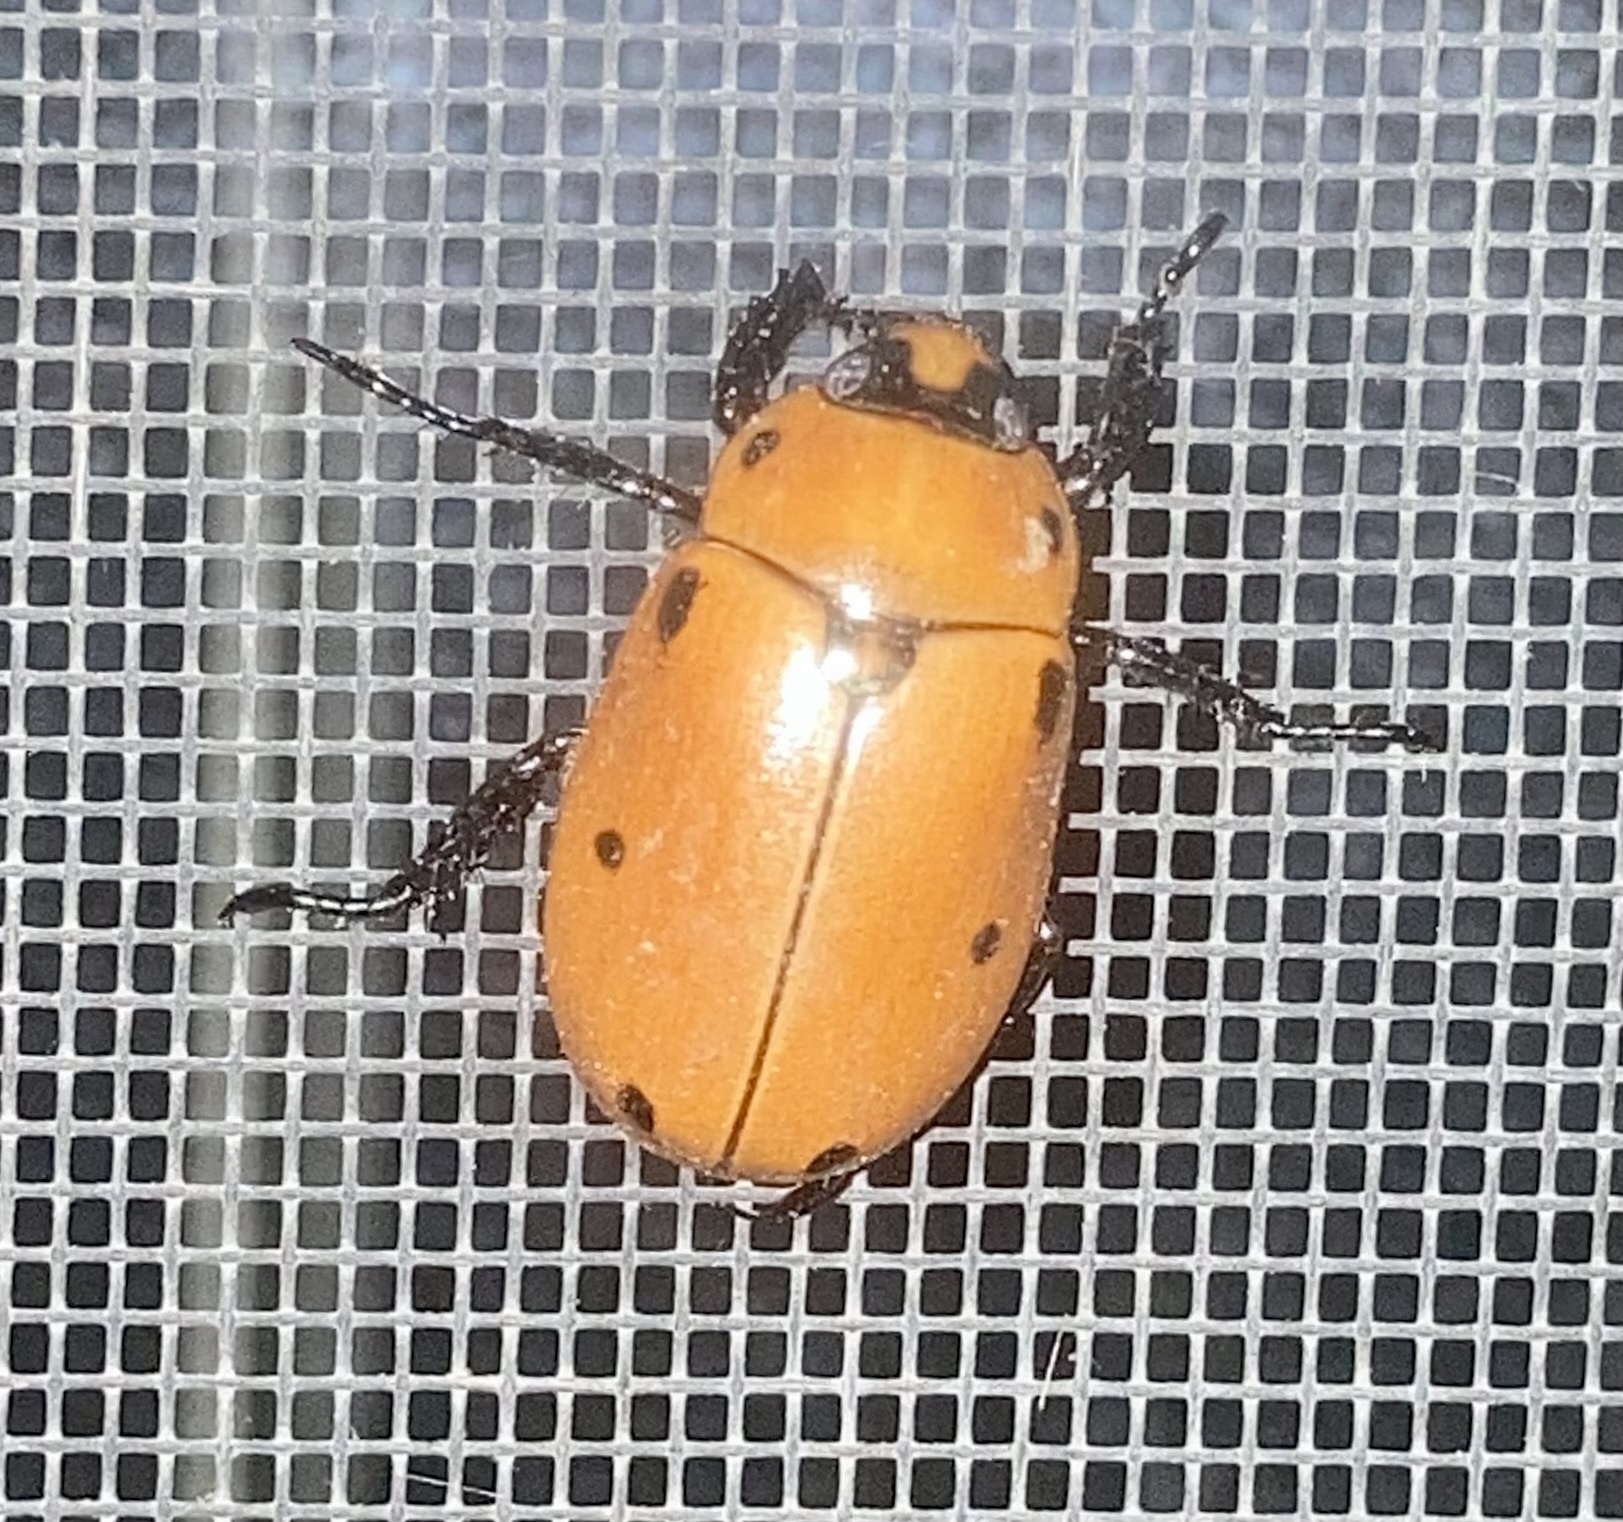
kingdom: Animalia
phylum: Arthropoda
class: Insecta
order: Coleoptera
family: Scarabaeidae
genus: Pelidnota
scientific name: Pelidnota punctata
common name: Grapevine beetle
